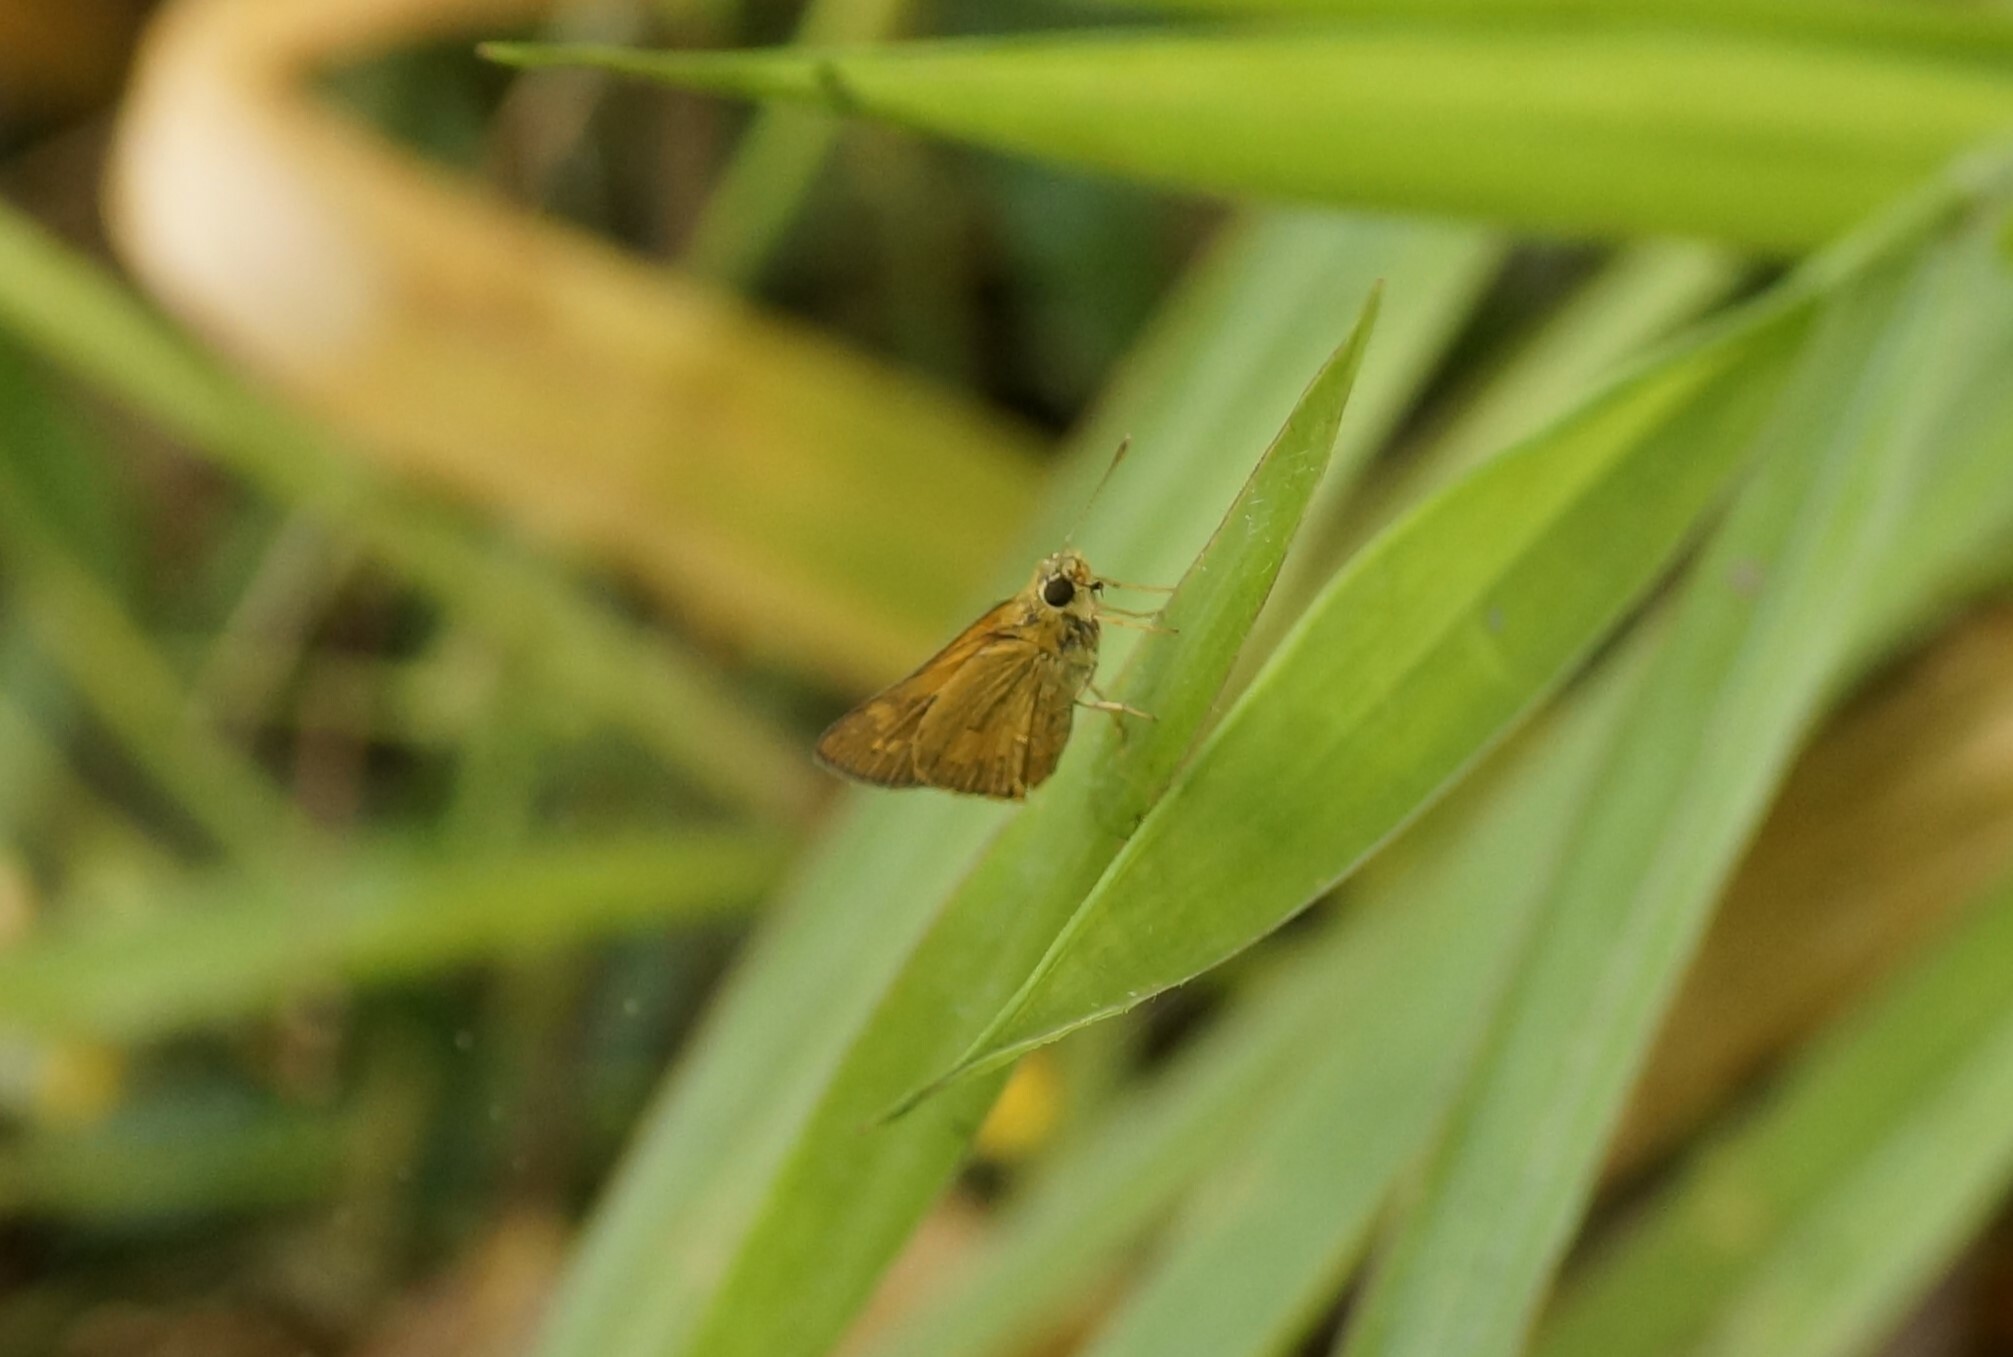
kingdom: Animalia
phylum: Arthropoda
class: Insecta
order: Lepidoptera
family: Hesperiidae
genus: Telicota
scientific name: Telicota paceka
